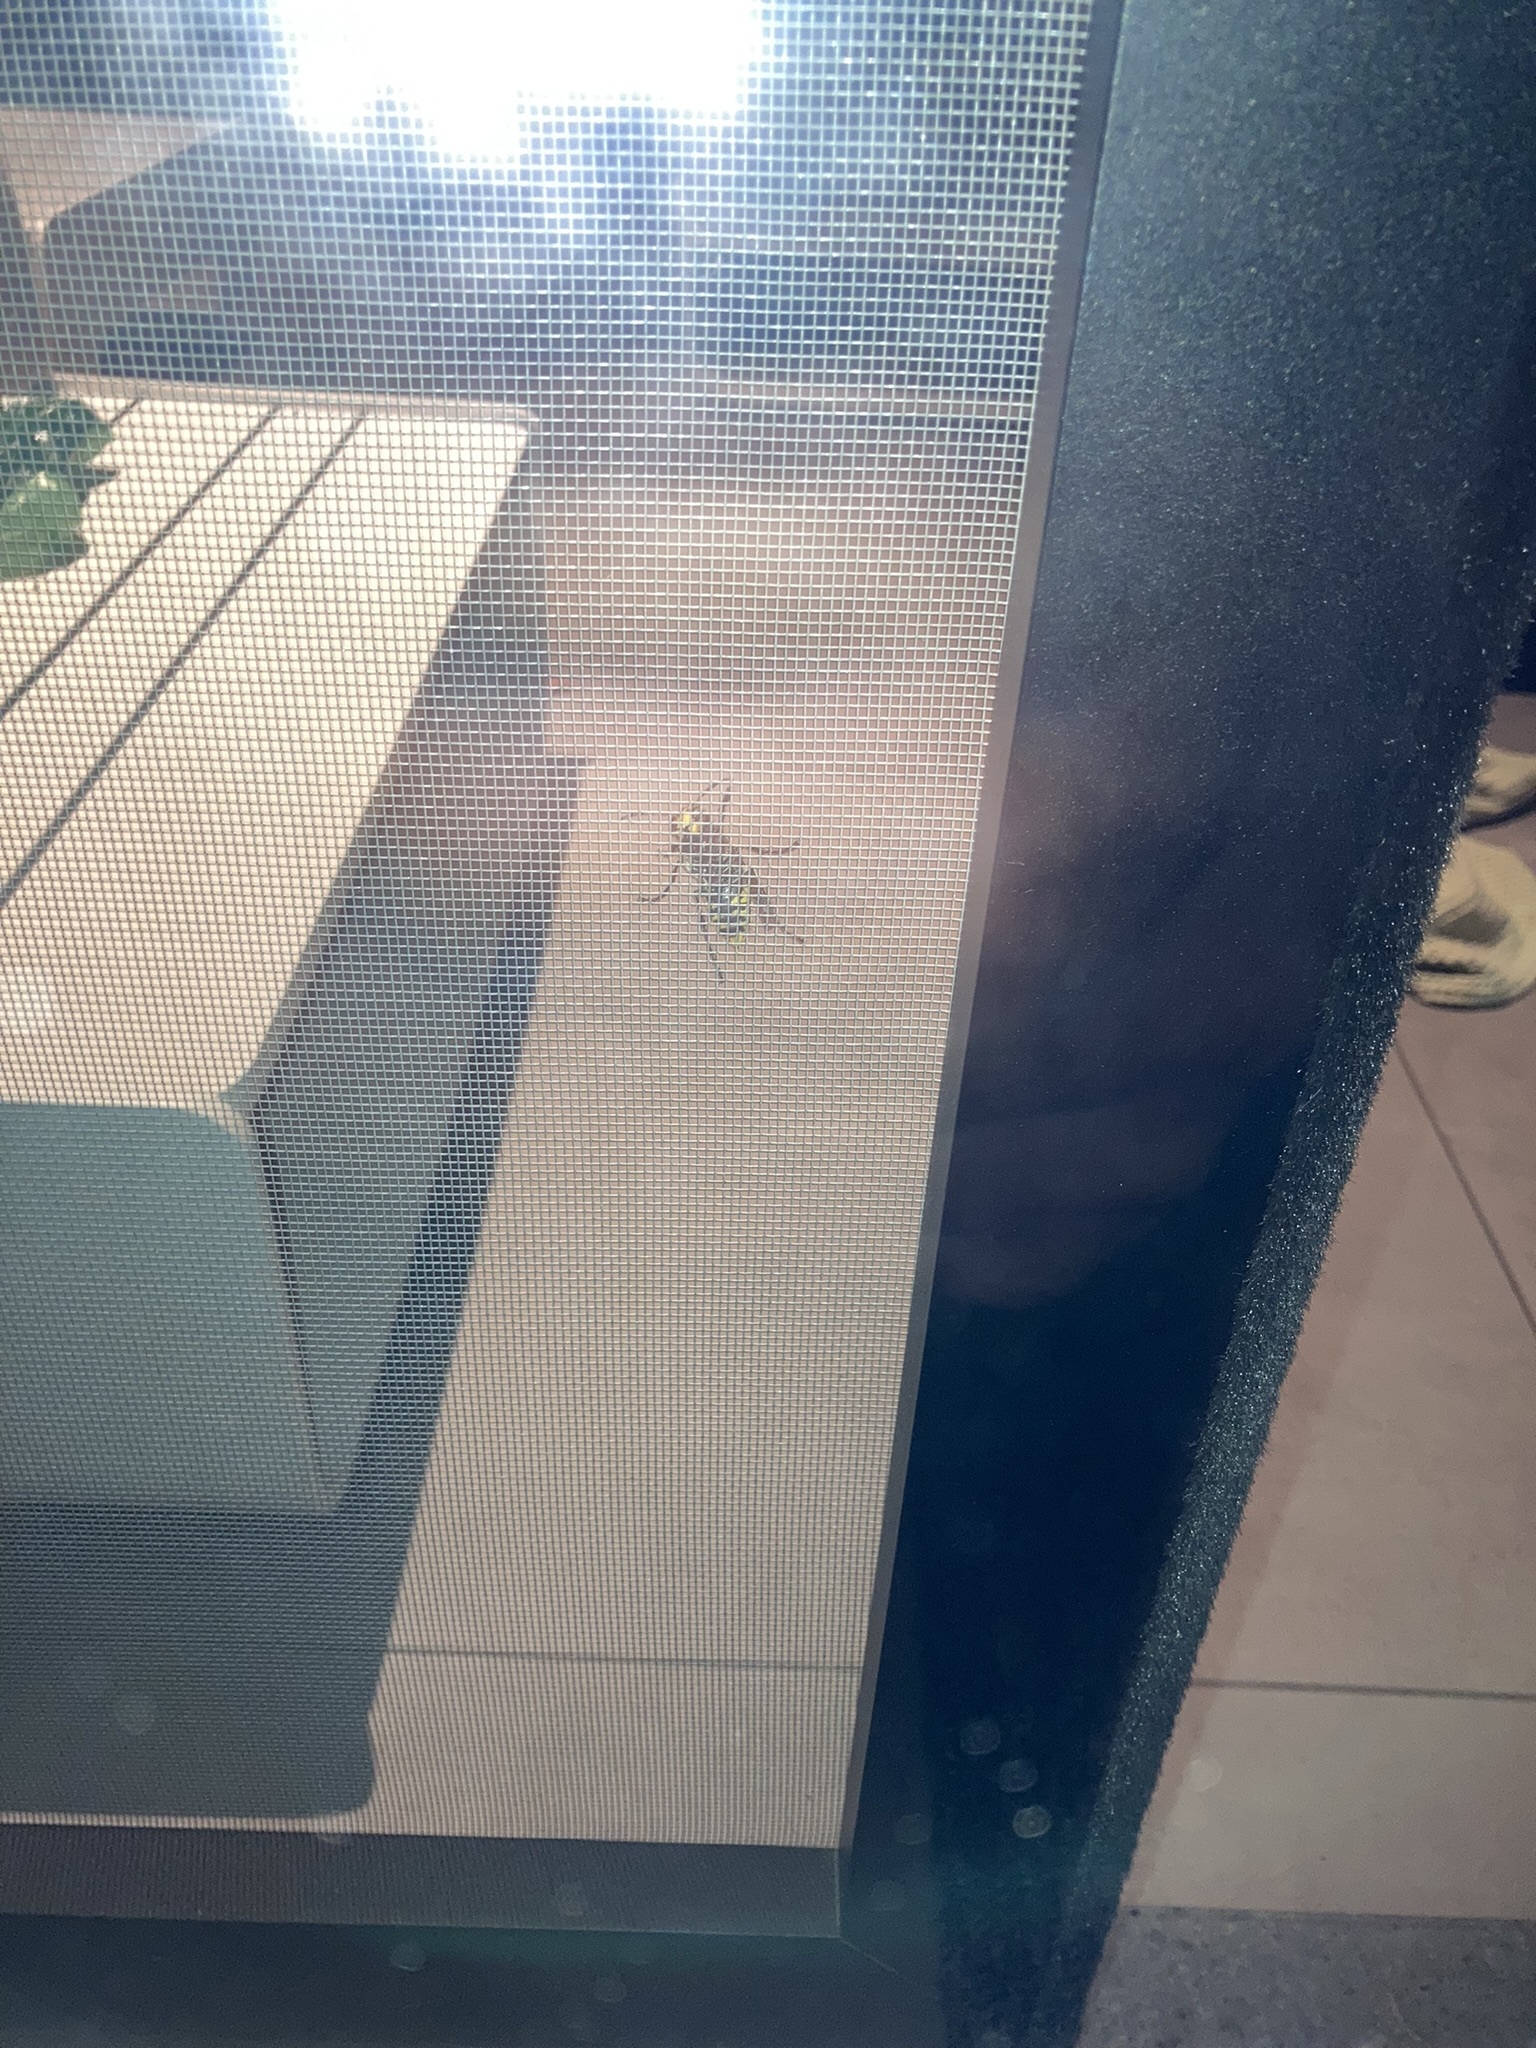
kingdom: Animalia
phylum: Arthropoda
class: Insecta
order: Hymenoptera
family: Vespidae
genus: Vespa
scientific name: Vespa crabro
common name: Hornet
